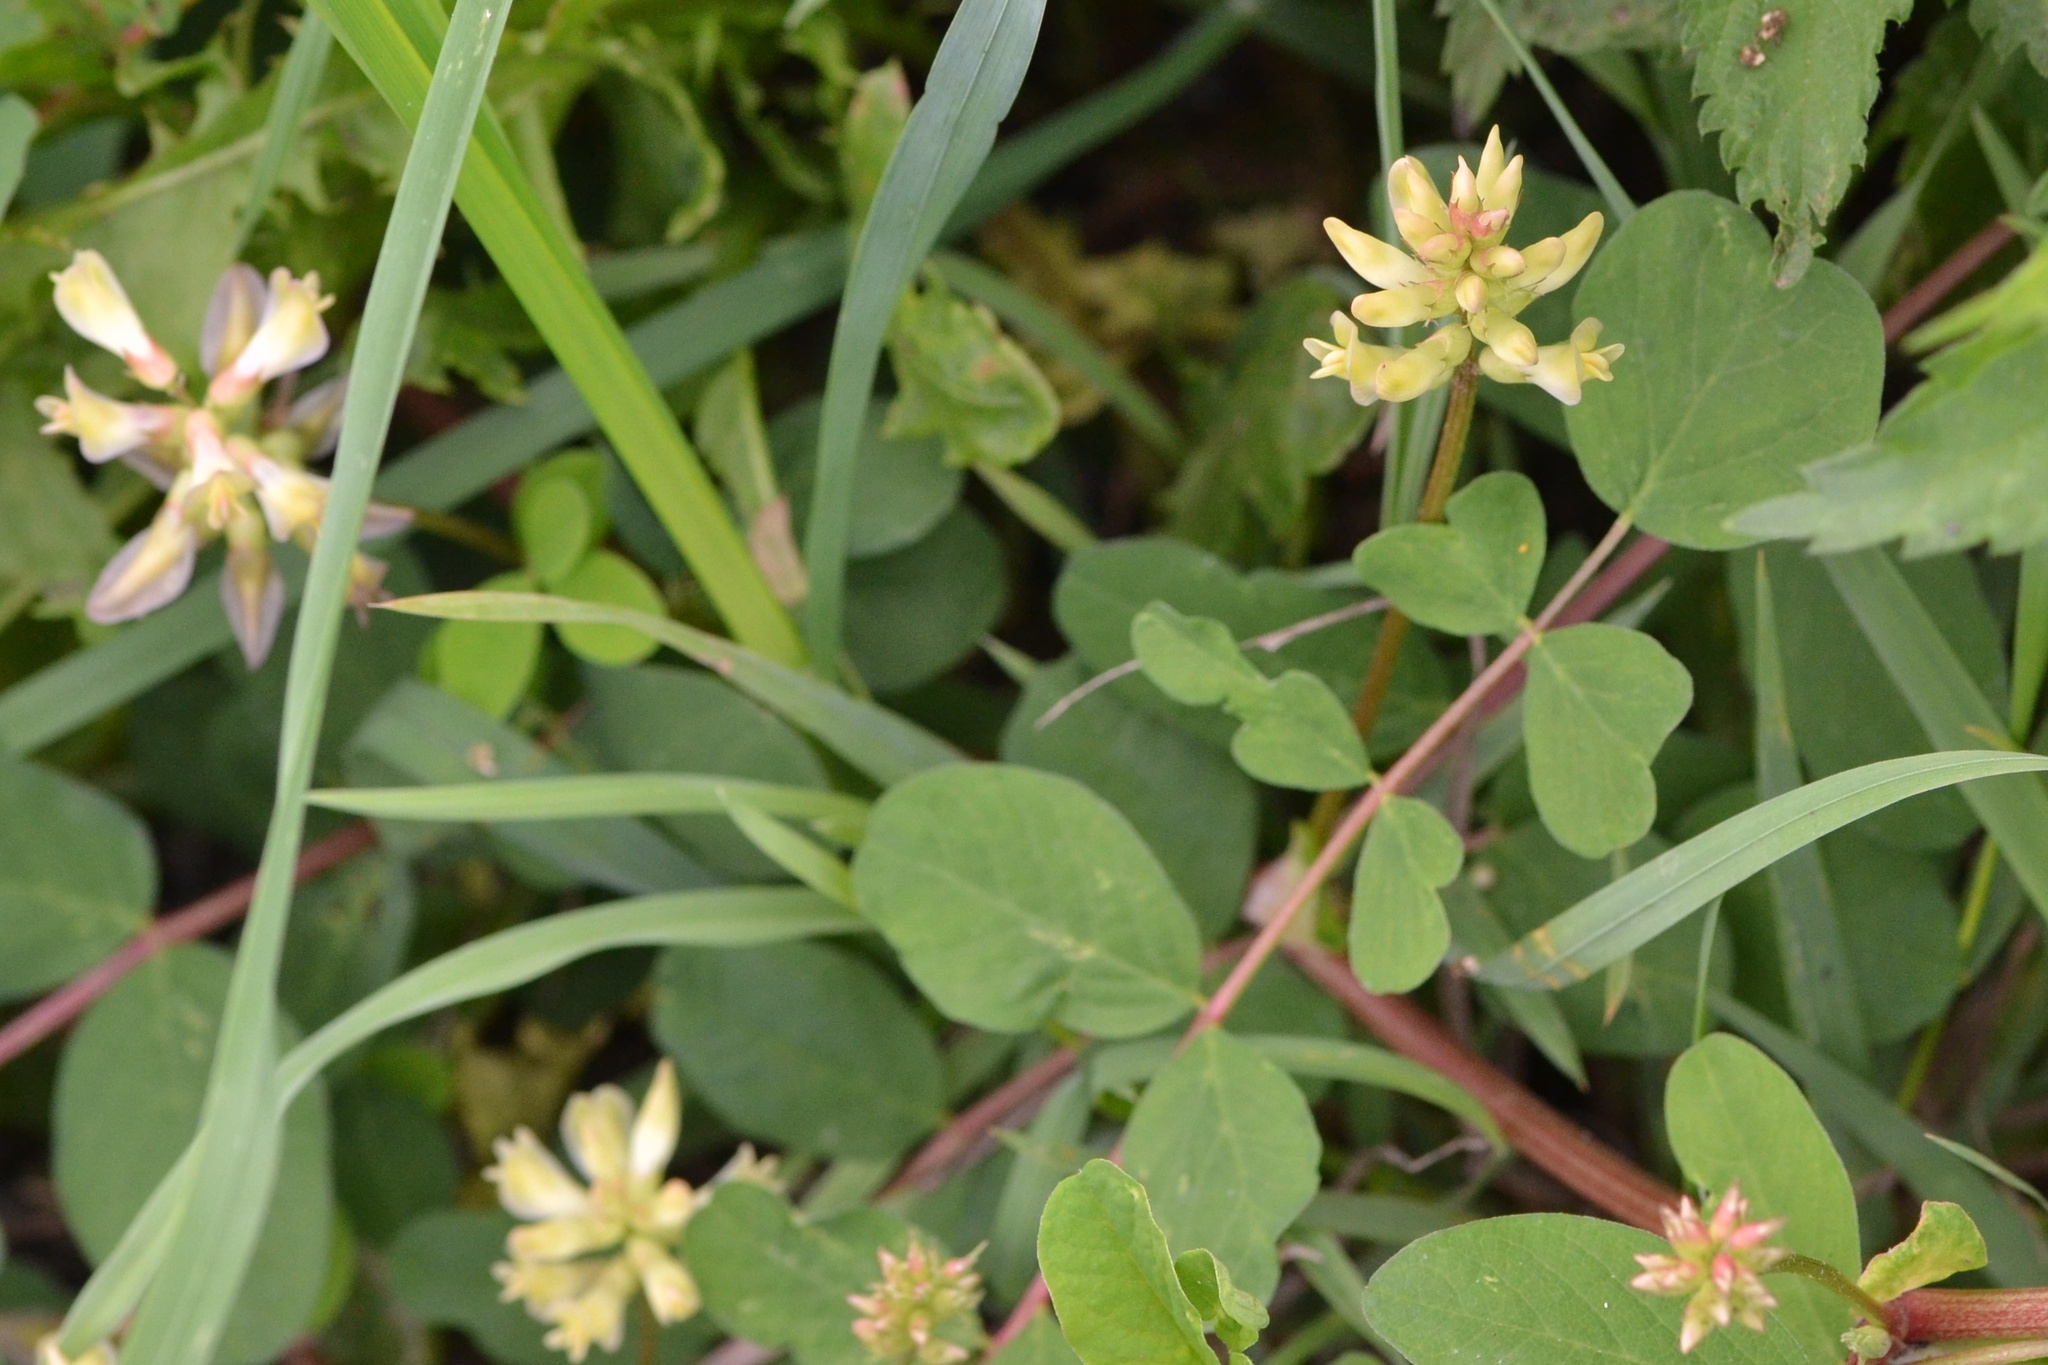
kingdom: Plantae
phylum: Tracheophyta
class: Magnoliopsida
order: Fabales
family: Fabaceae
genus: Astragalus
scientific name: Astragalus glycyphyllos
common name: Wild liquorice
